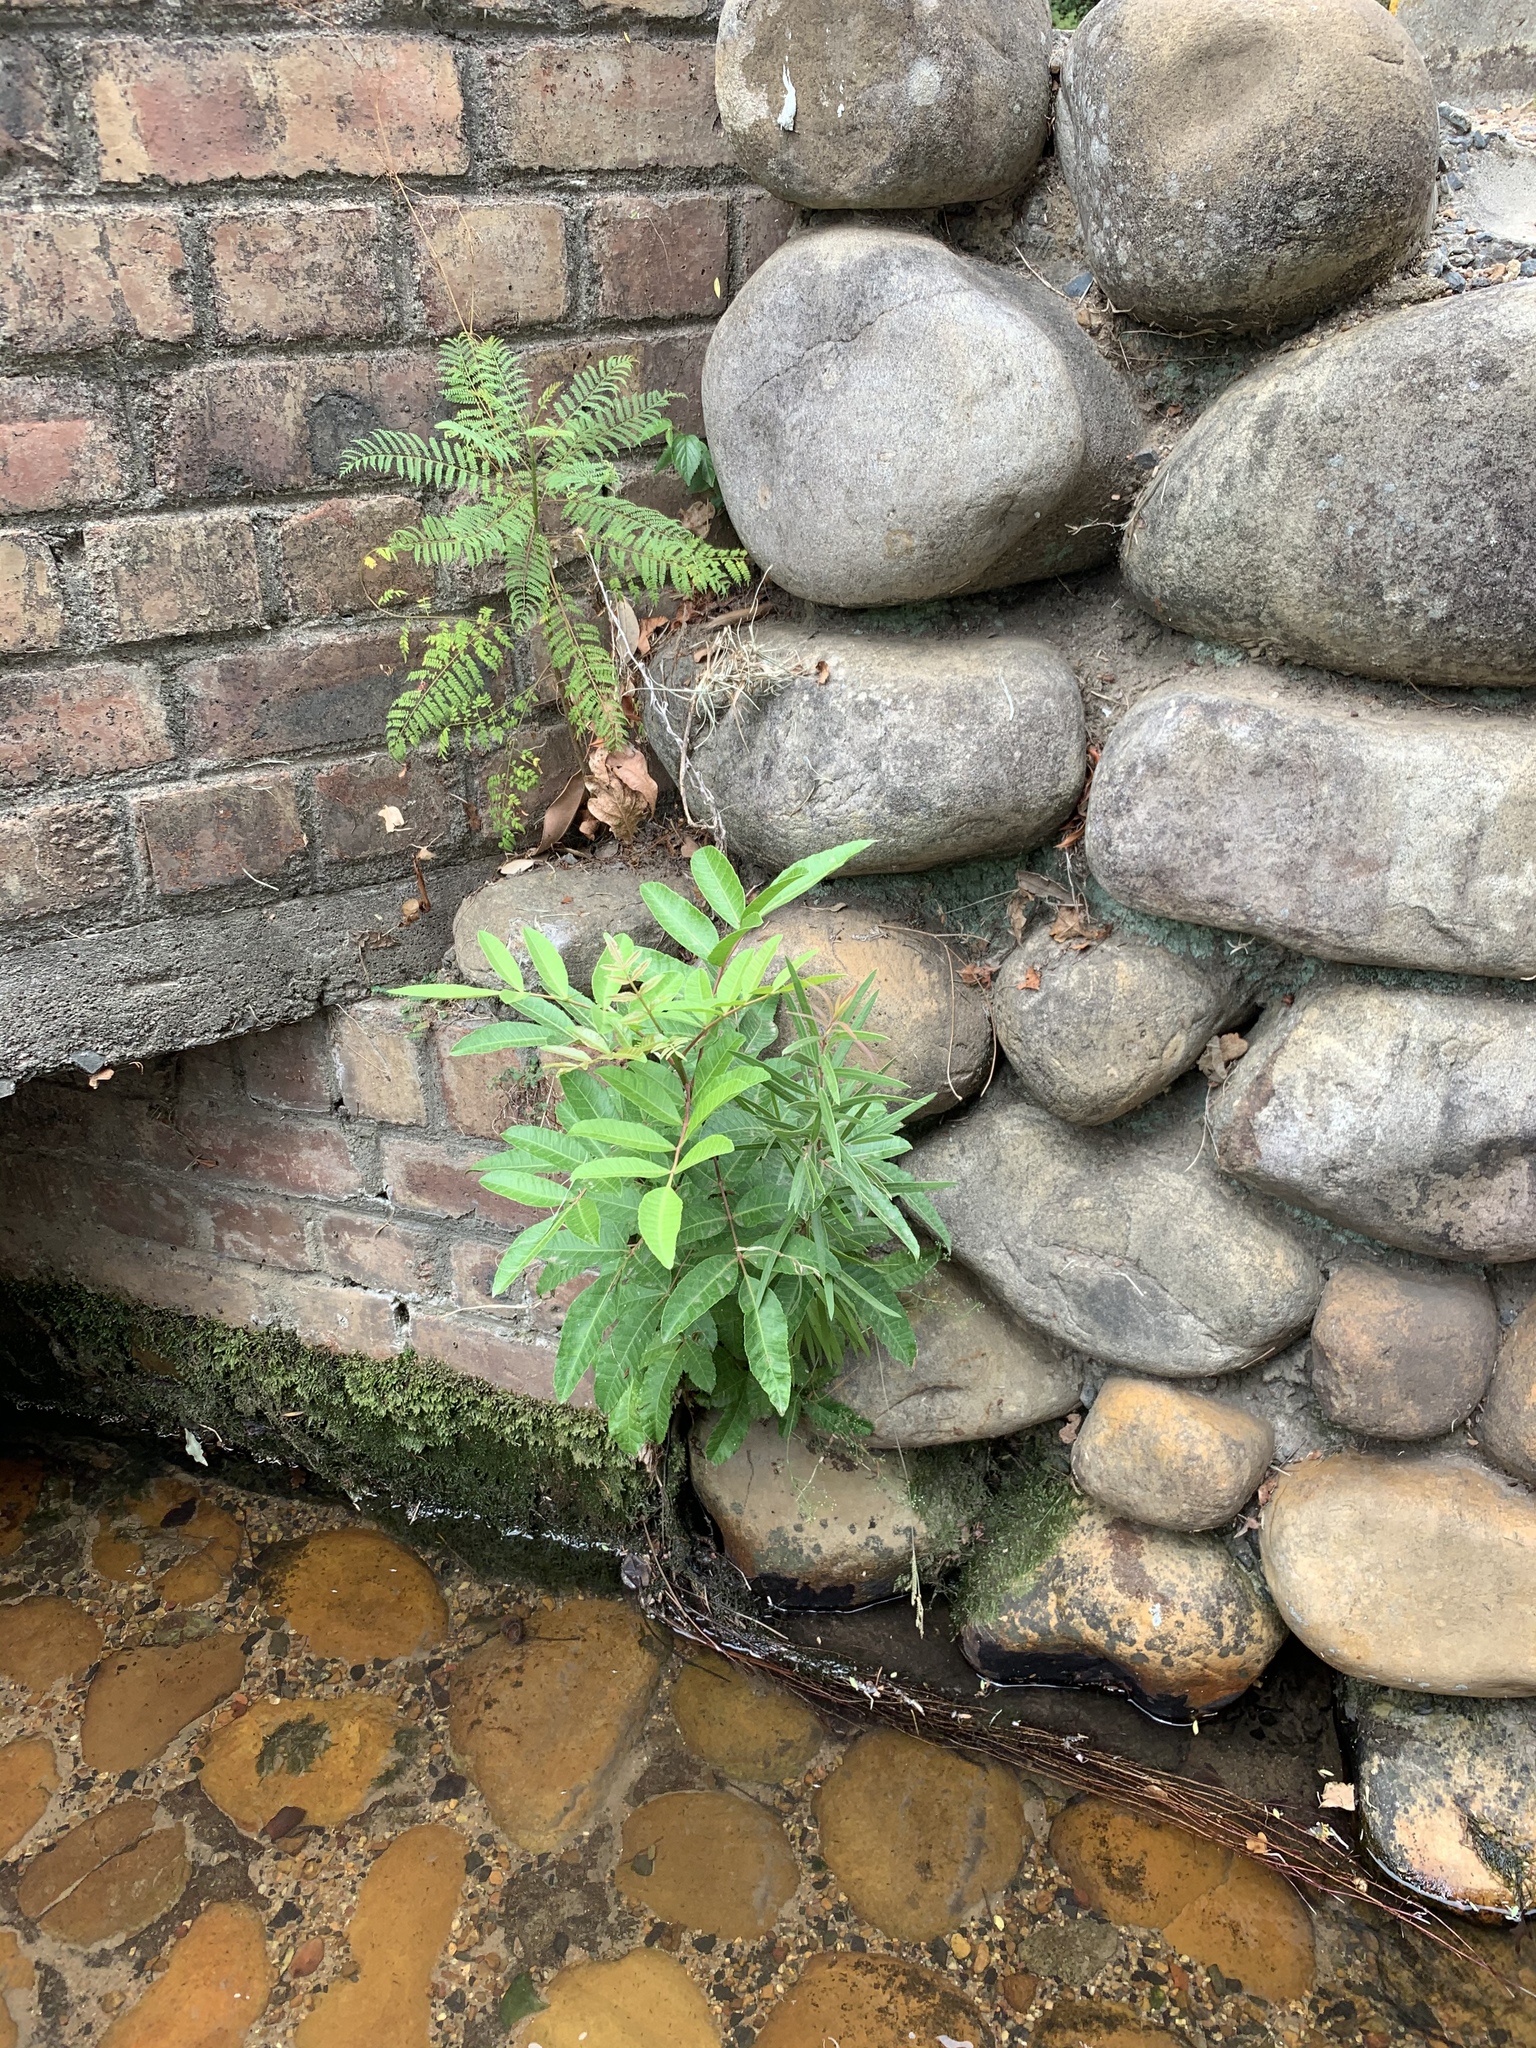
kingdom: Plantae
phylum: Tracheophyta
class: Magnoliopsida
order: Sapindales
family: Anacardiaceae
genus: Schinus
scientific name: Schinus terebinthifolia
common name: Brazilian peppertree
